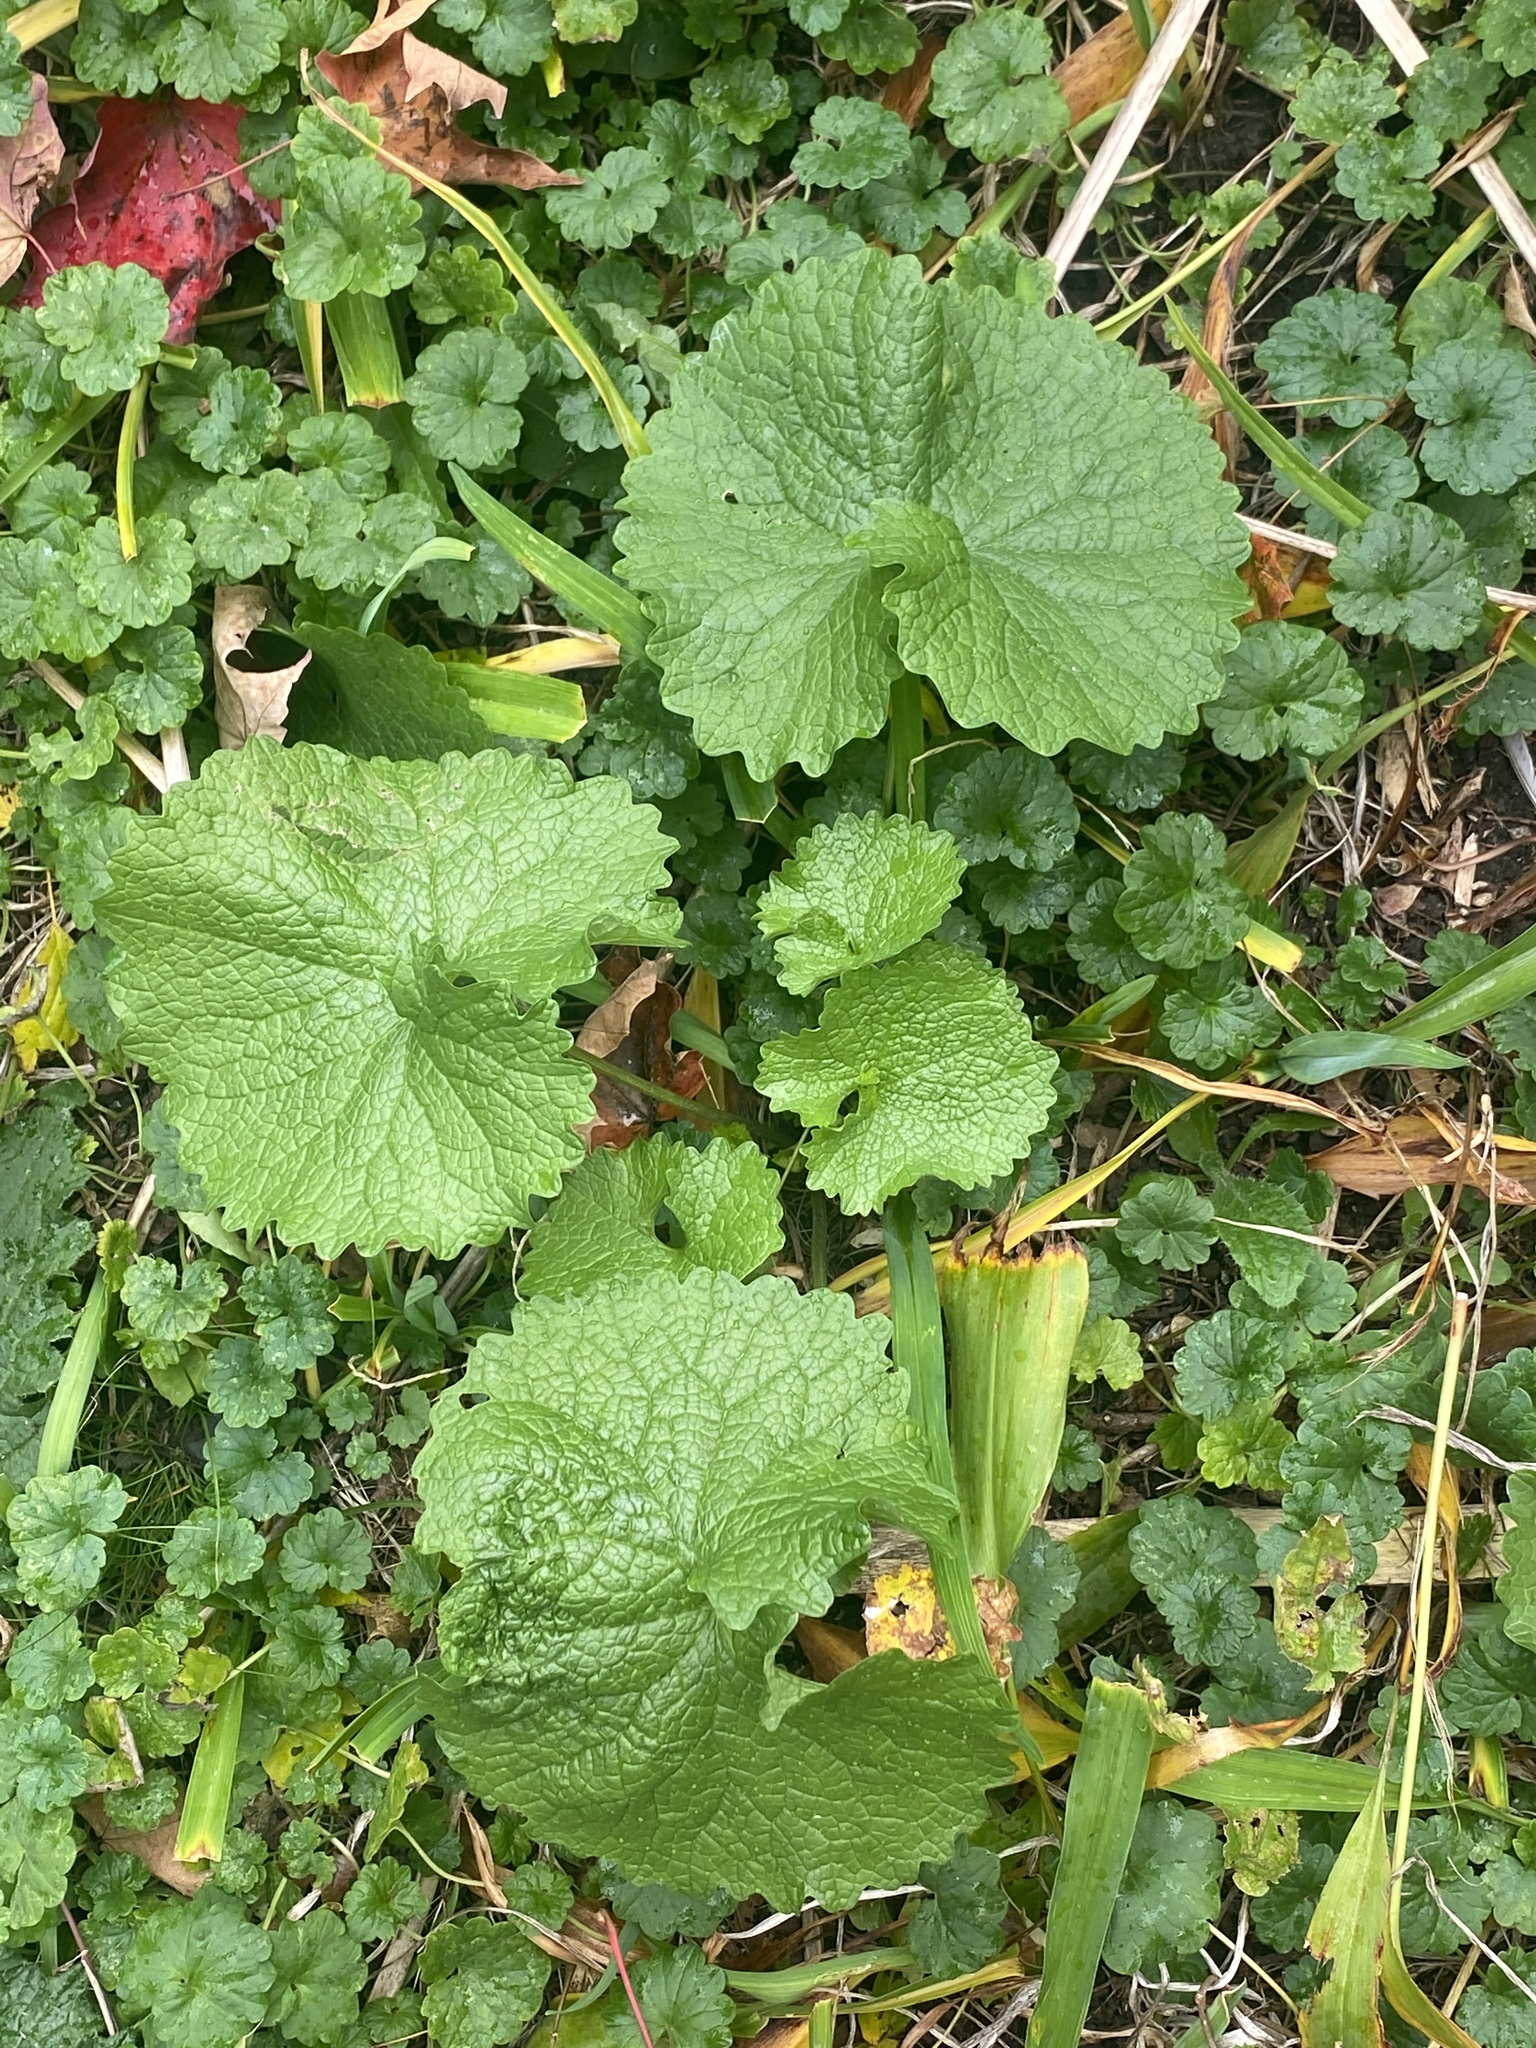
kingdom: Plantae
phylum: Tracheophyta
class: Magnoliopsida
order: Brassicales
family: Brassicaceae
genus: Alliaria
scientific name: Alliaria petiolata
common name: Garlic mustard
